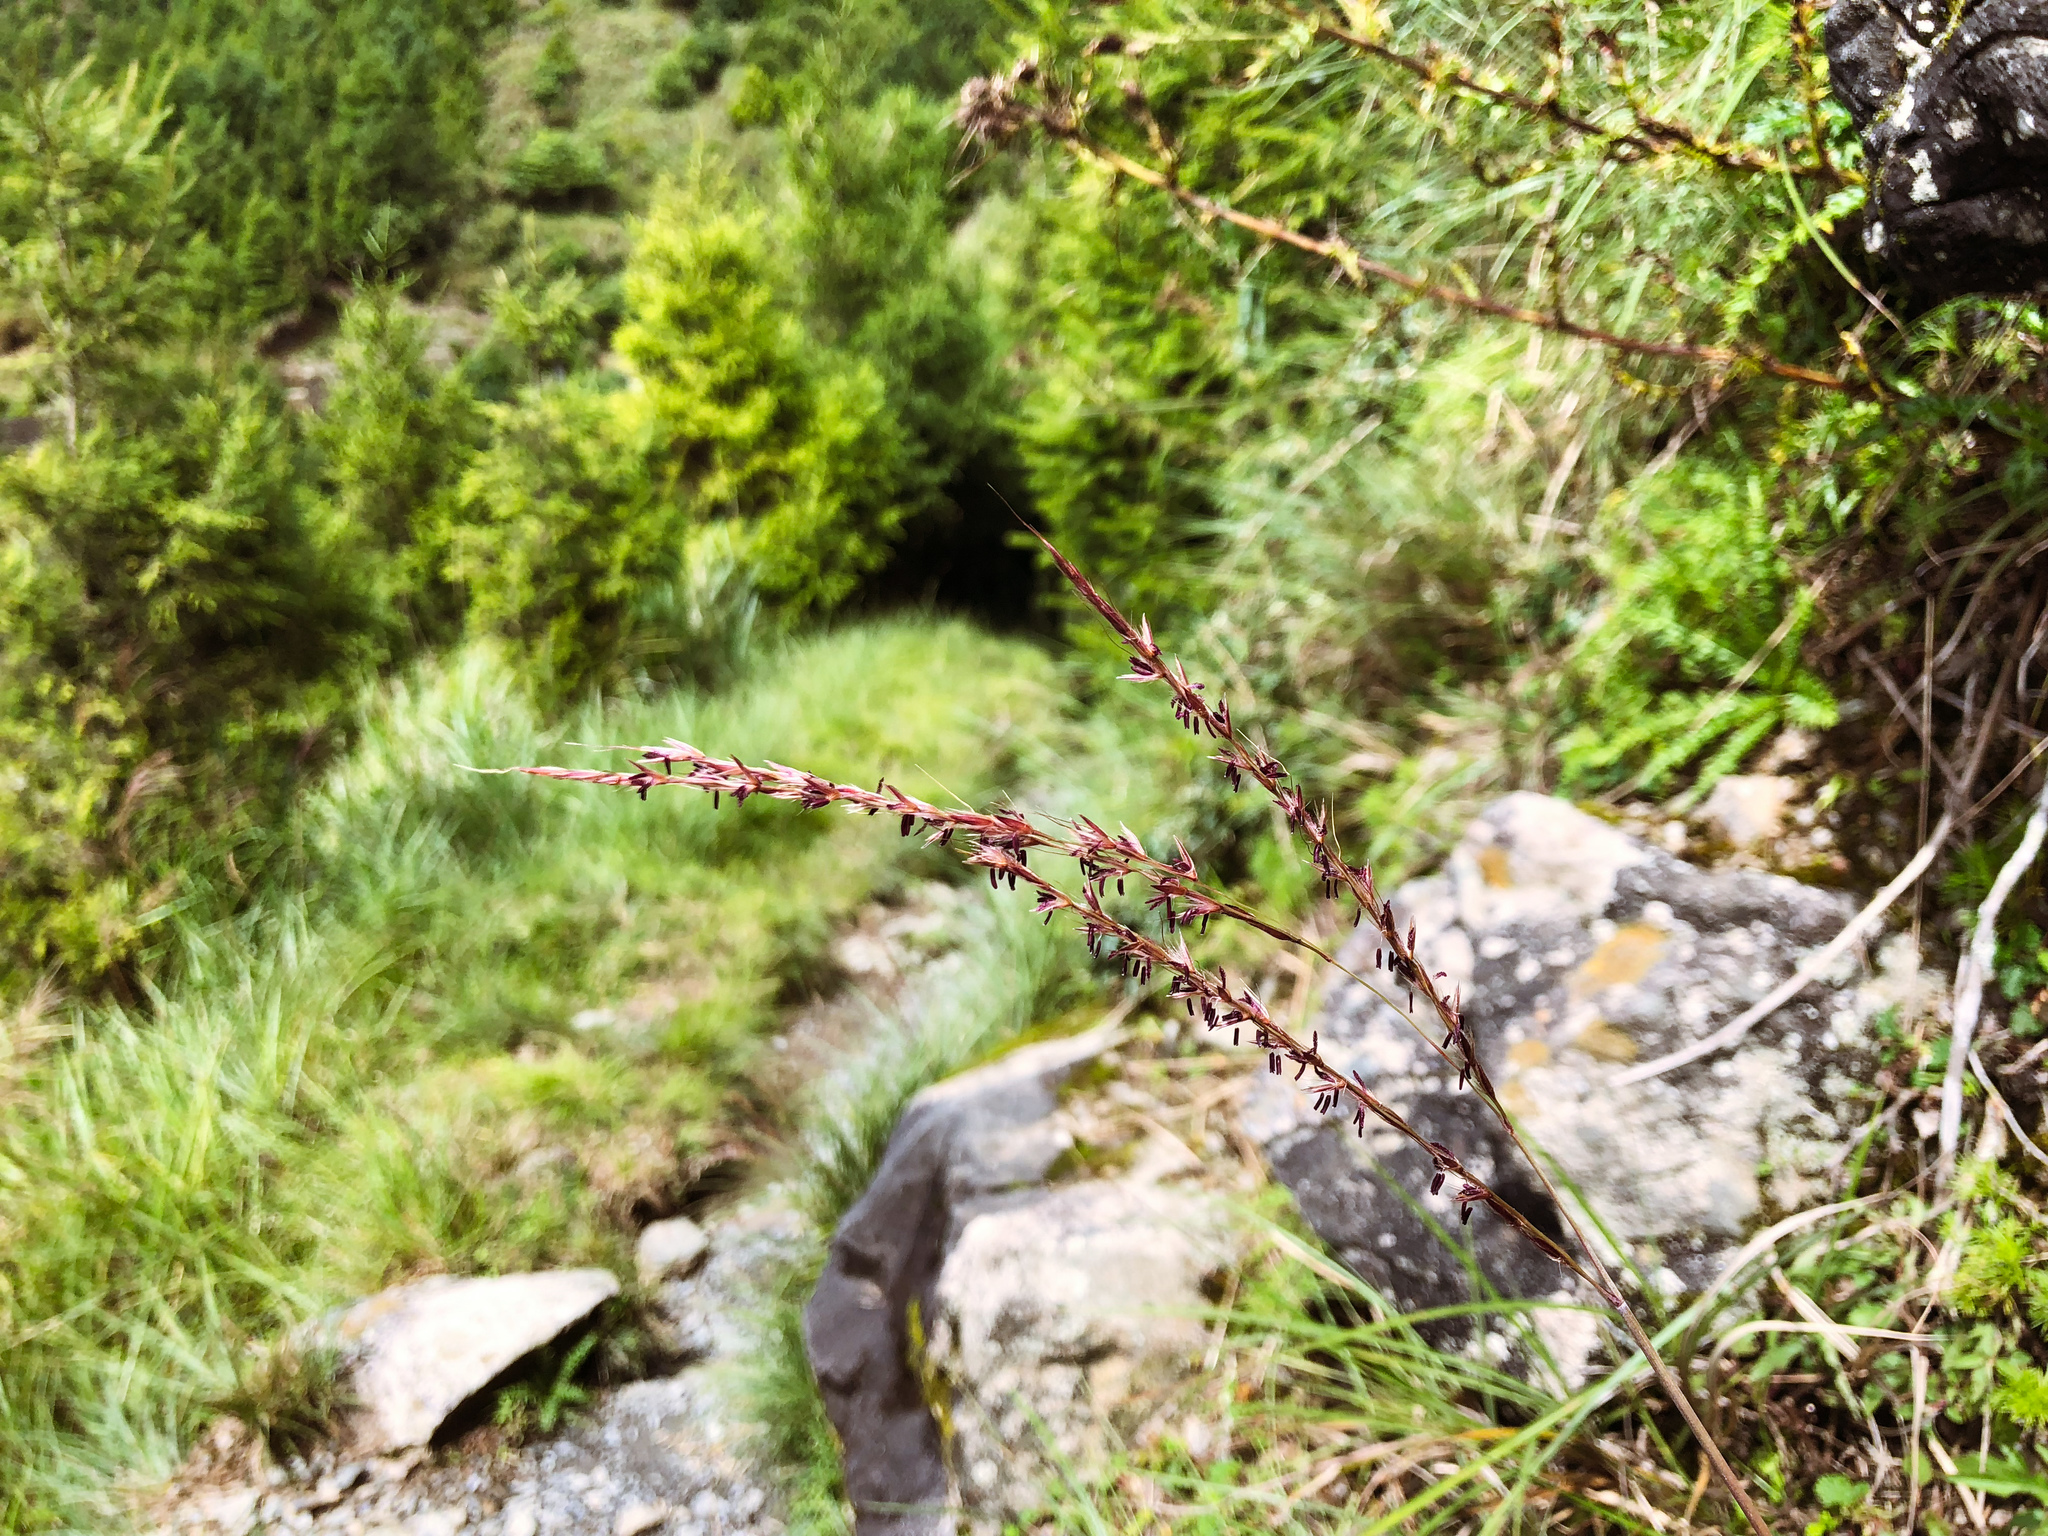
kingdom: Plantae
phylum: Tracheophyta
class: Liliopsida
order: Poales
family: Poaceae
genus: Miscanthus
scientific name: Miscanthus sinensis
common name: Chinese silvergrass
